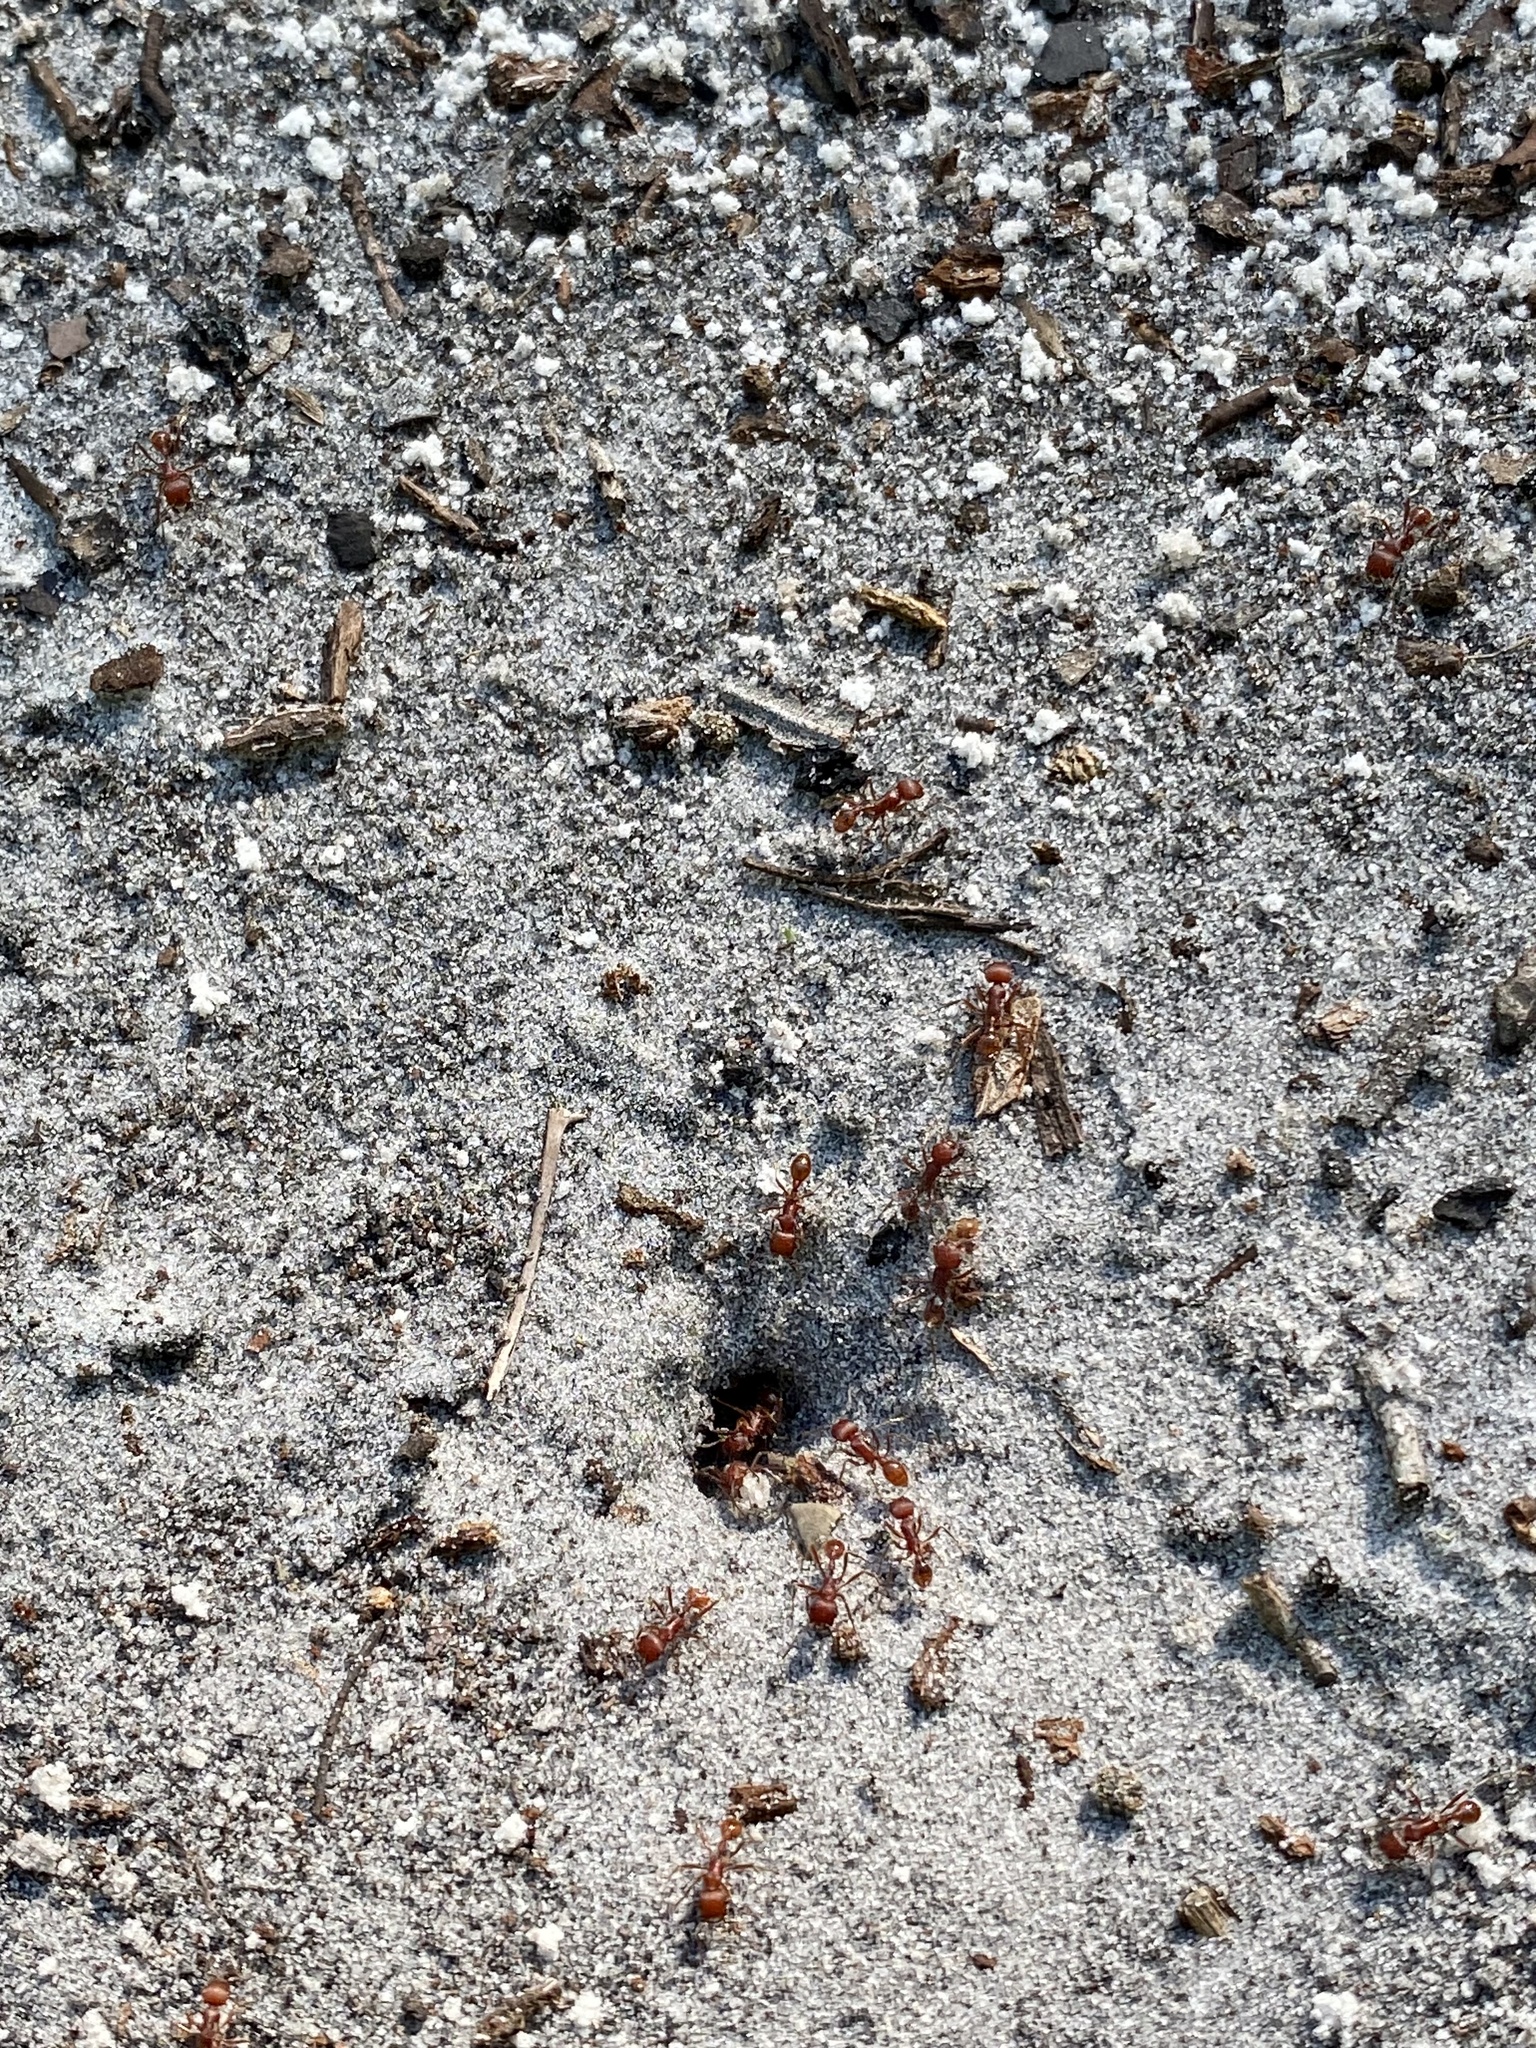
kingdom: Animalia
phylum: Arthropoda
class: Insecta
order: Hymenoptera
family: Formicidae
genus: Pogonomyrmex
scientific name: Pogonomyrmex badius
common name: Florida harvester ant
